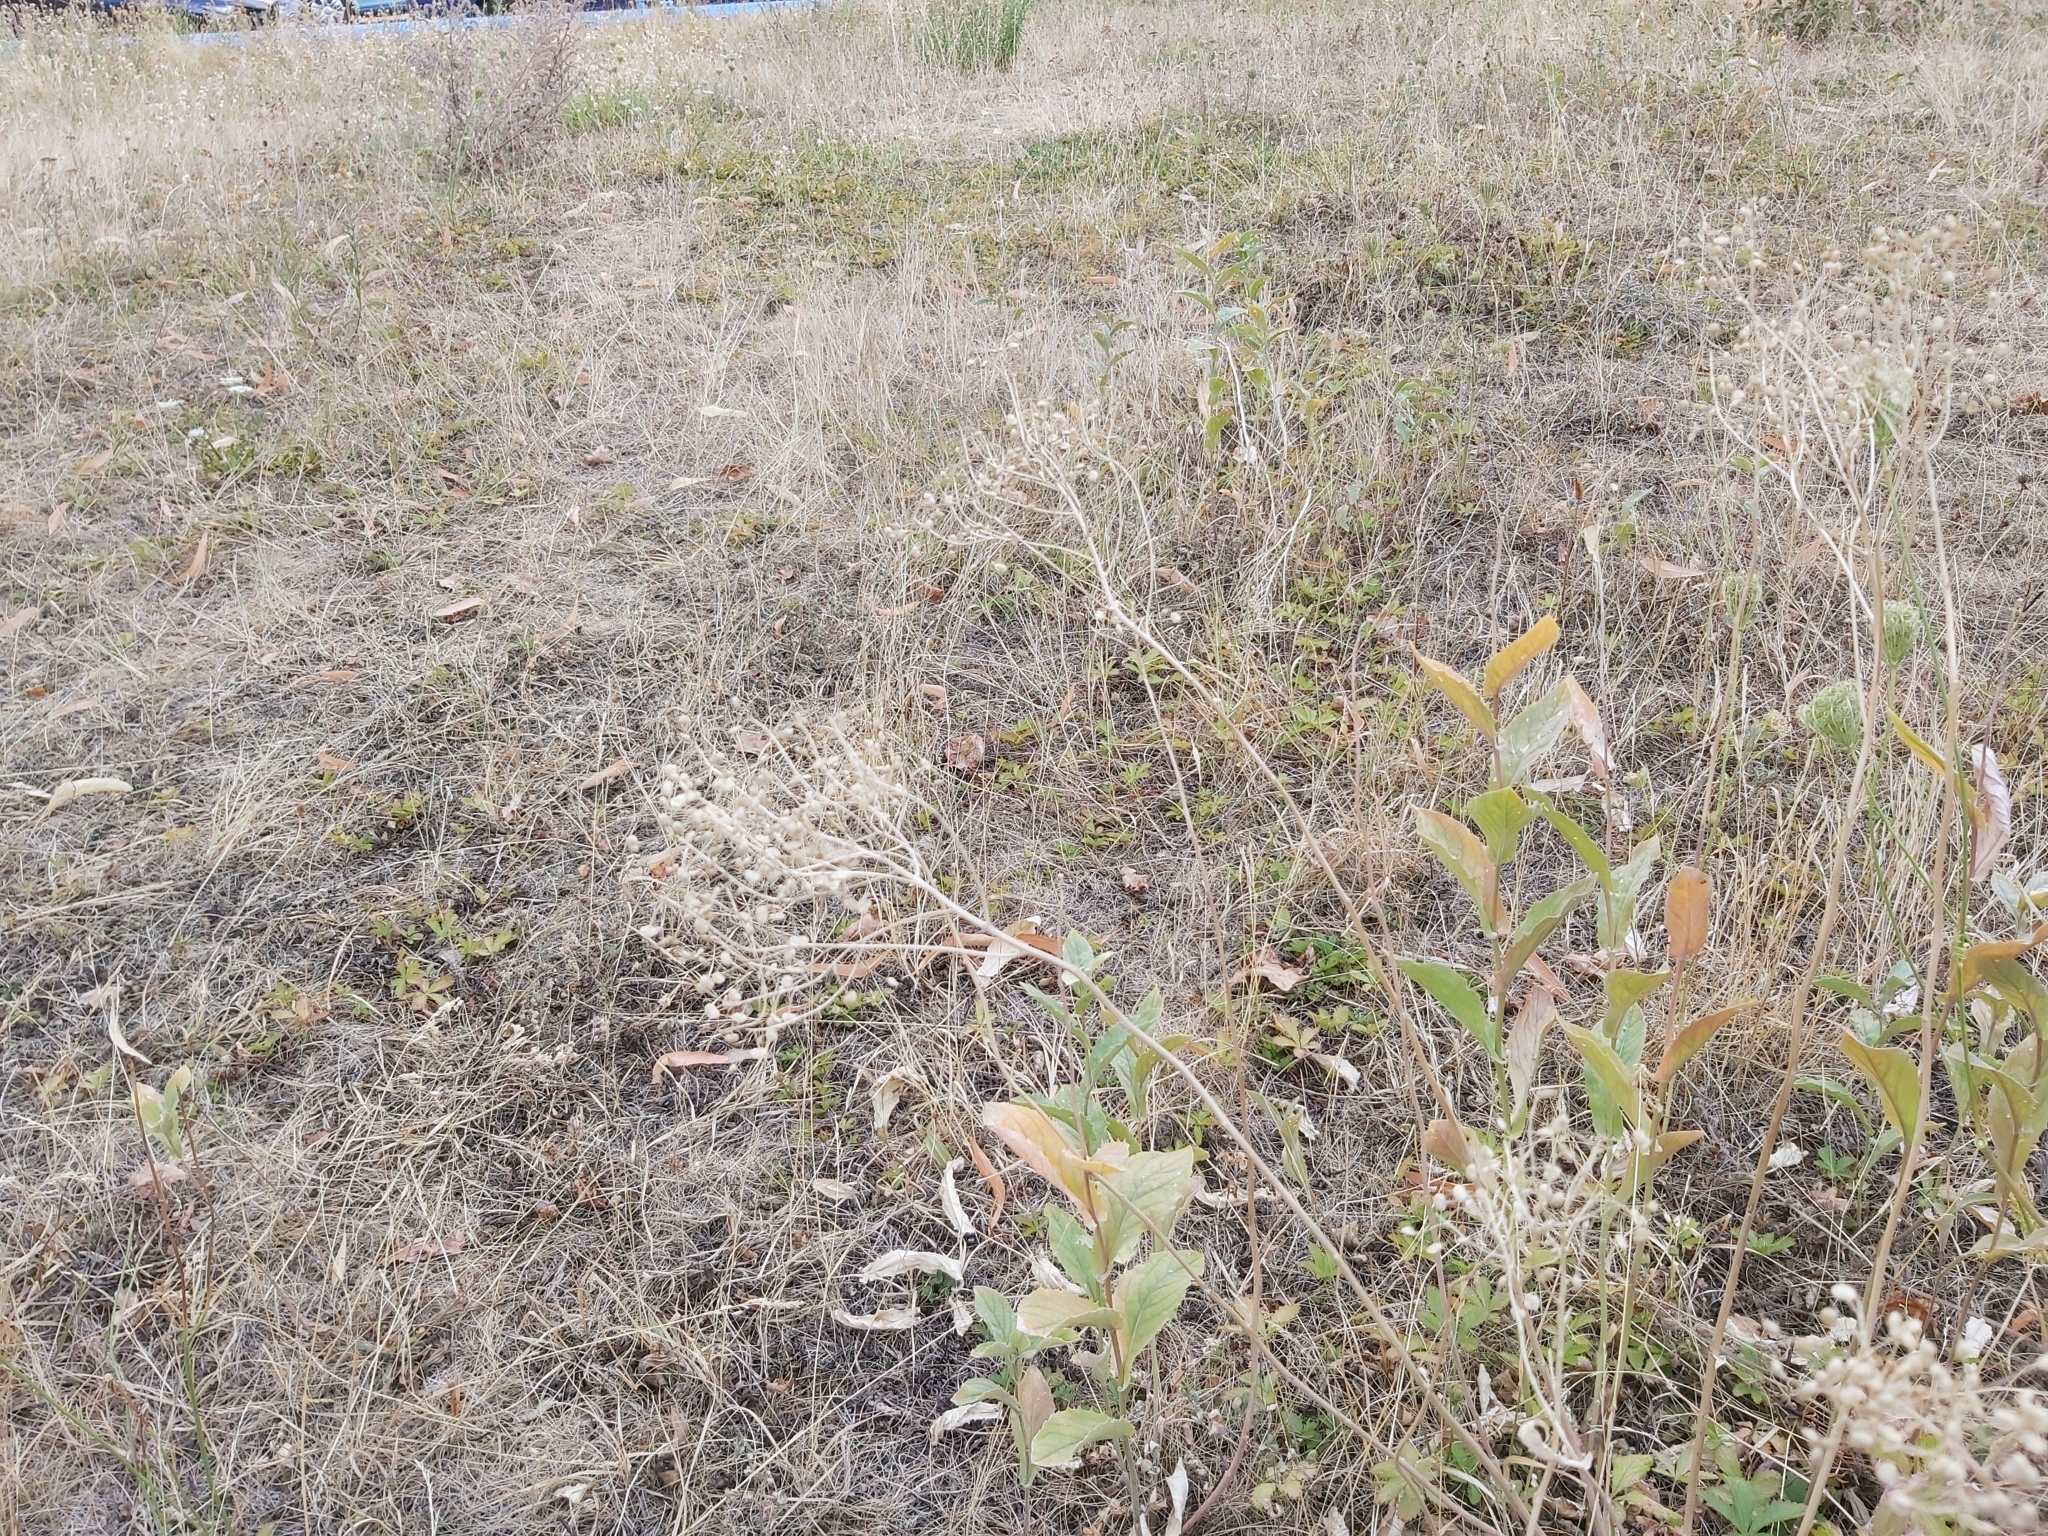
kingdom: Plantae
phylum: Tracheophyta
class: Magnoliopsida
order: Brassicales
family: Brassicaceae
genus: Lepidium
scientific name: Lepidium draba
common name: Hoary cress
